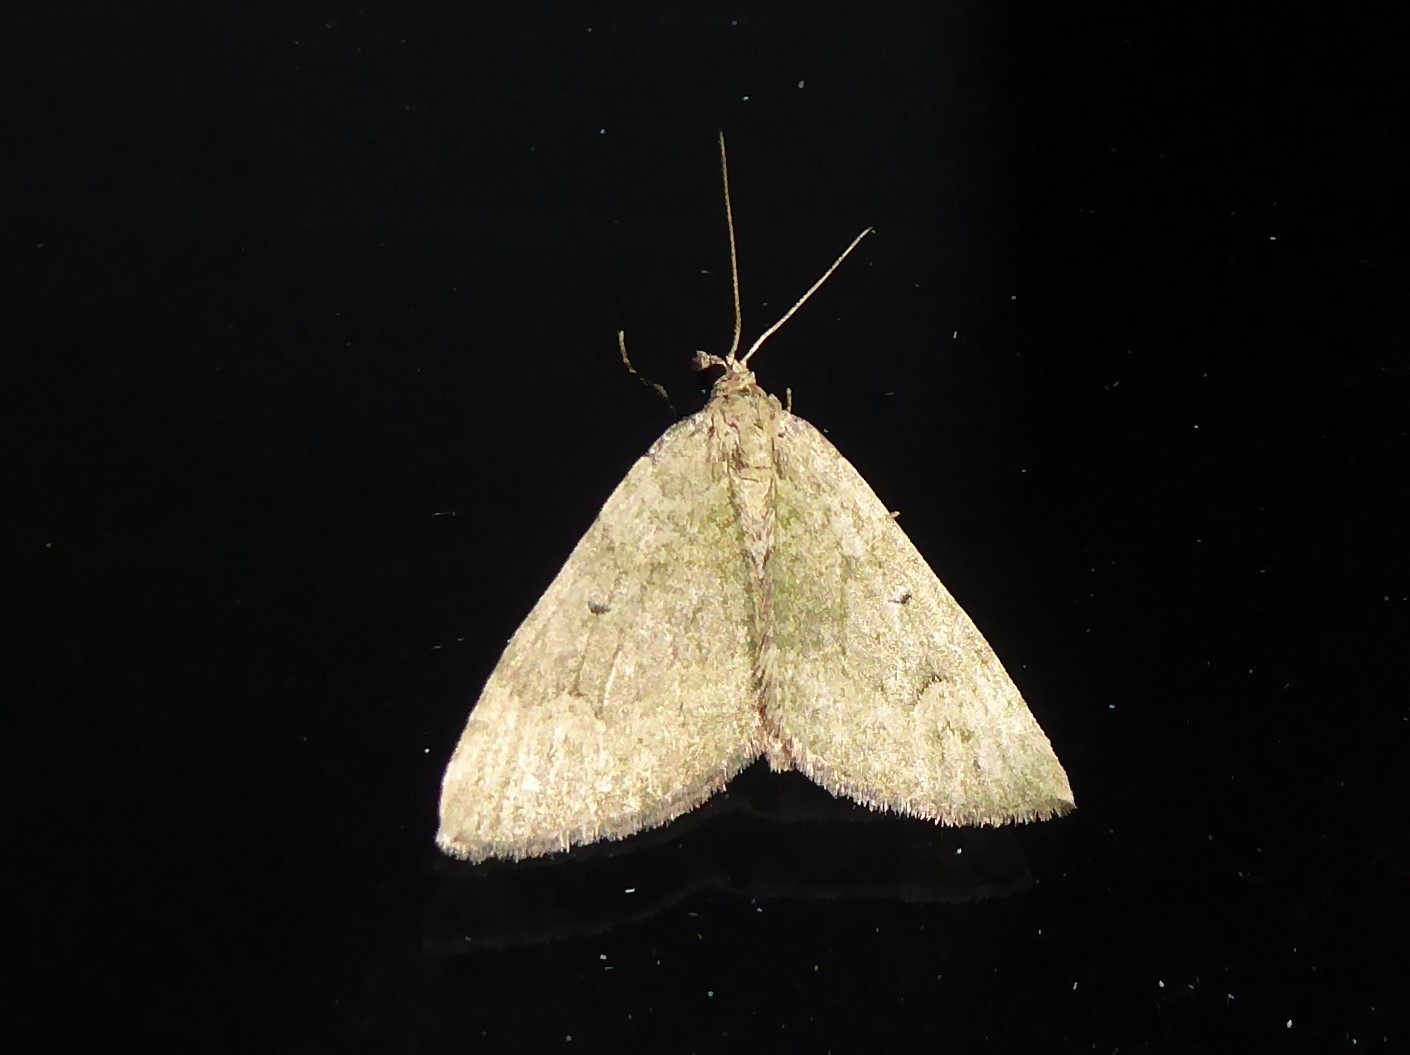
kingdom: Animalia
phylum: Arthropoda
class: Insecta
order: Lepidoptera
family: Geometridae
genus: Epyaxa
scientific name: Epyaxa rosearia
